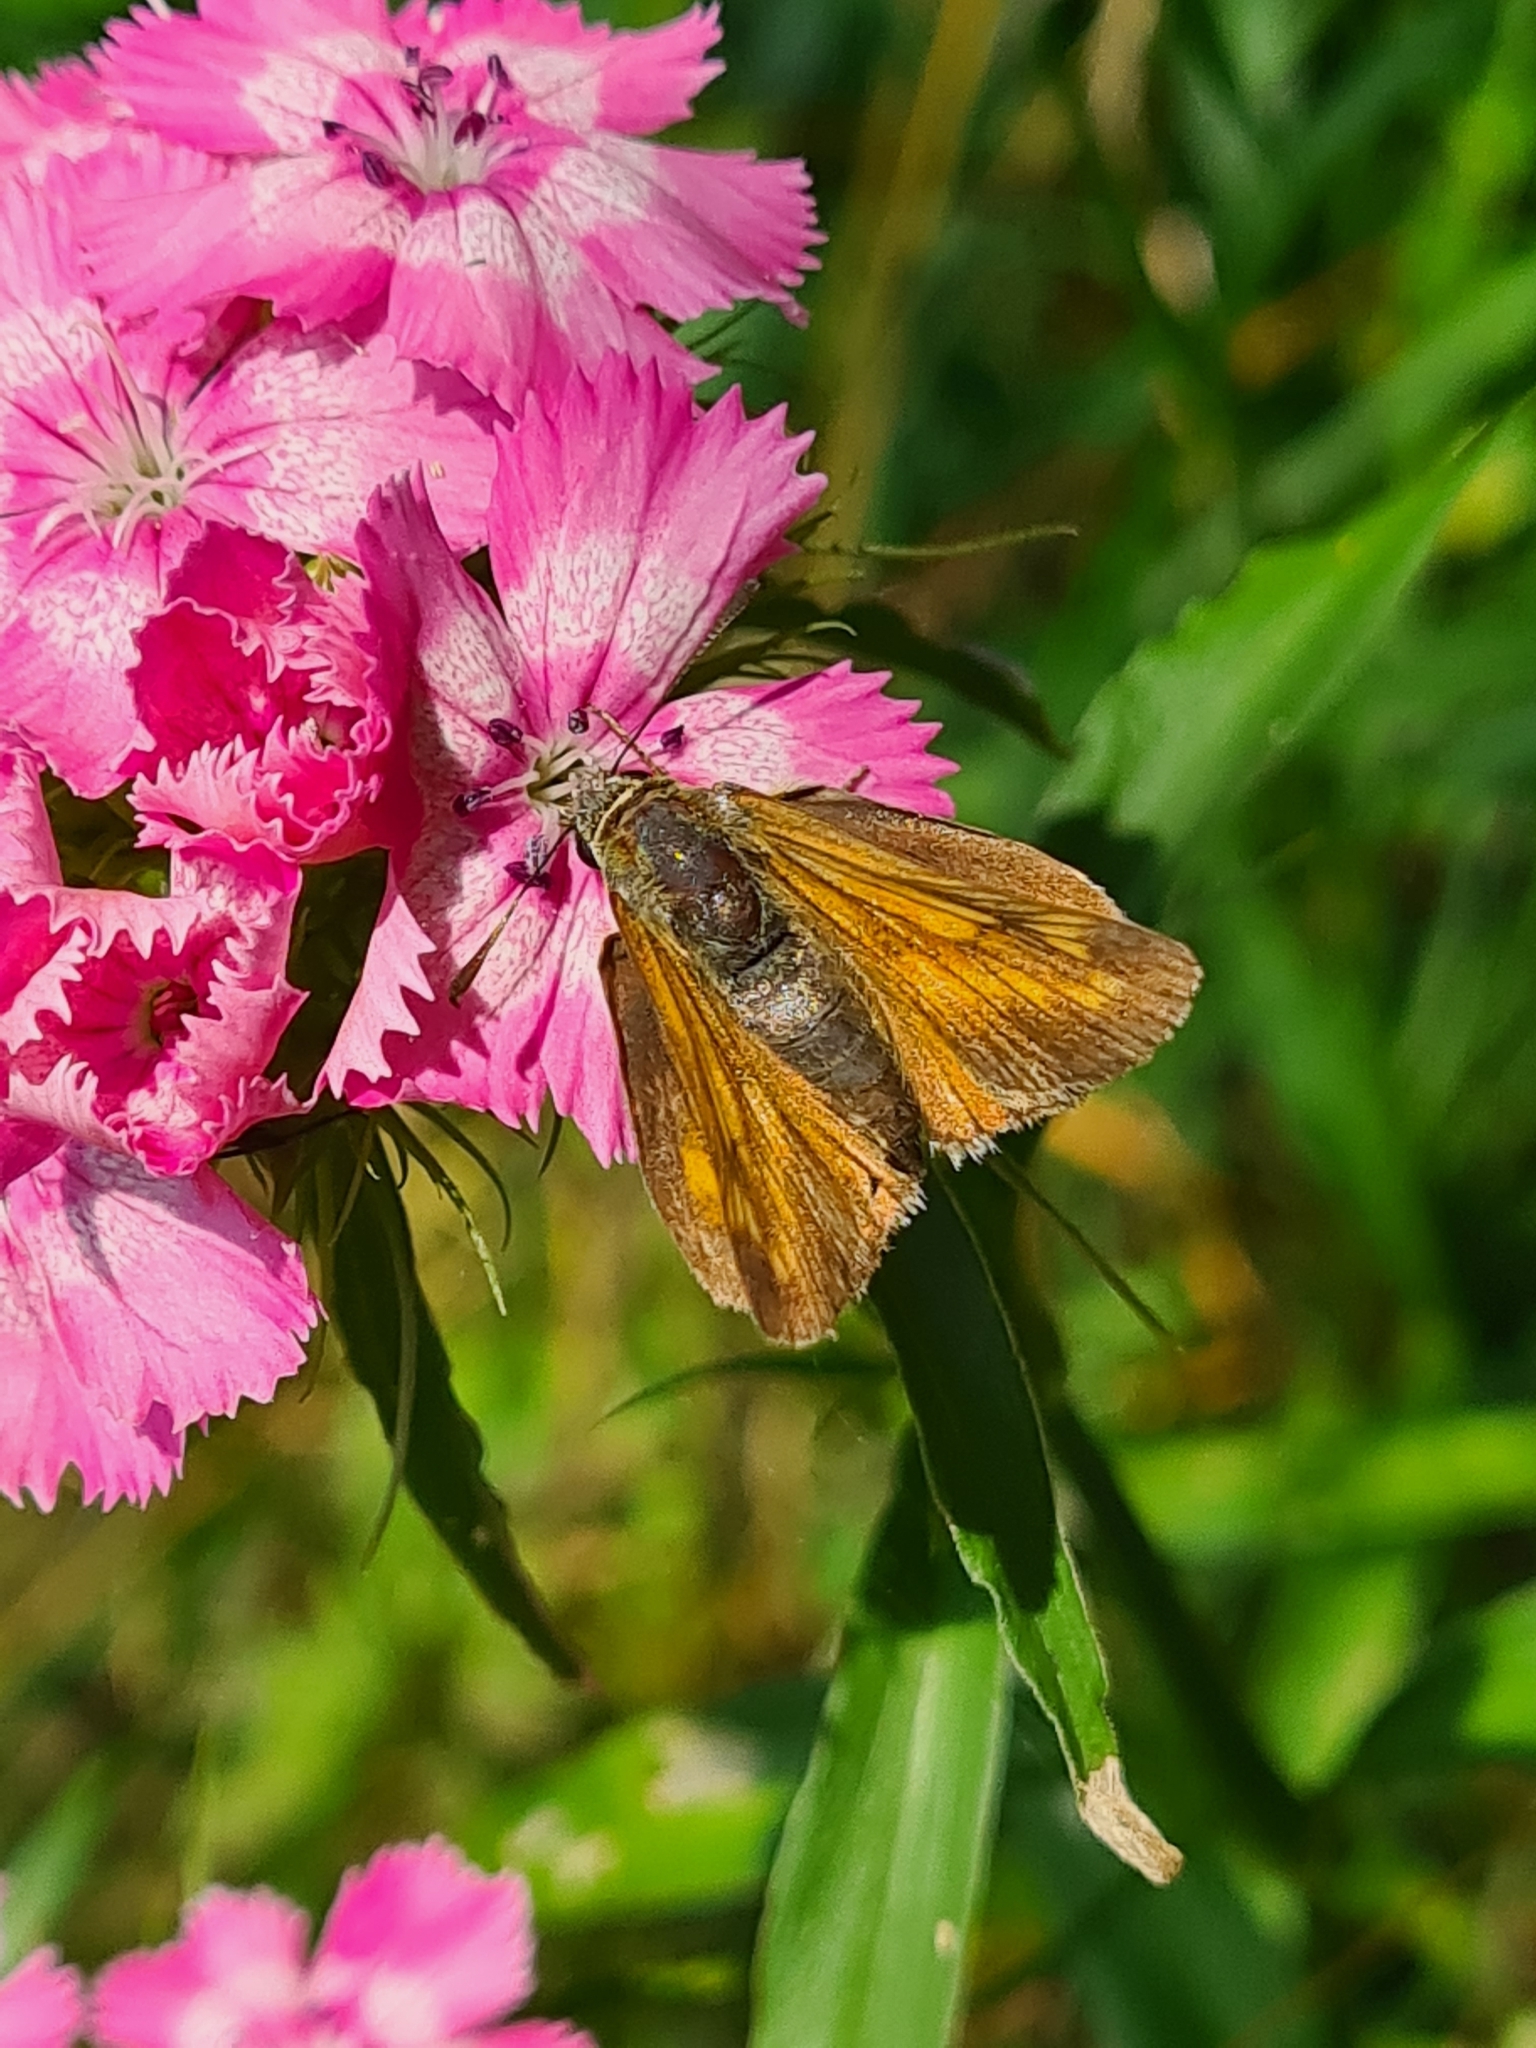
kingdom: Animalia
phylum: Arthropoda
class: Insecta
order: Lepidoptera
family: Hesperiidae
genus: Ochlodes
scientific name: Ochlodes venata
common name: Large skipper
